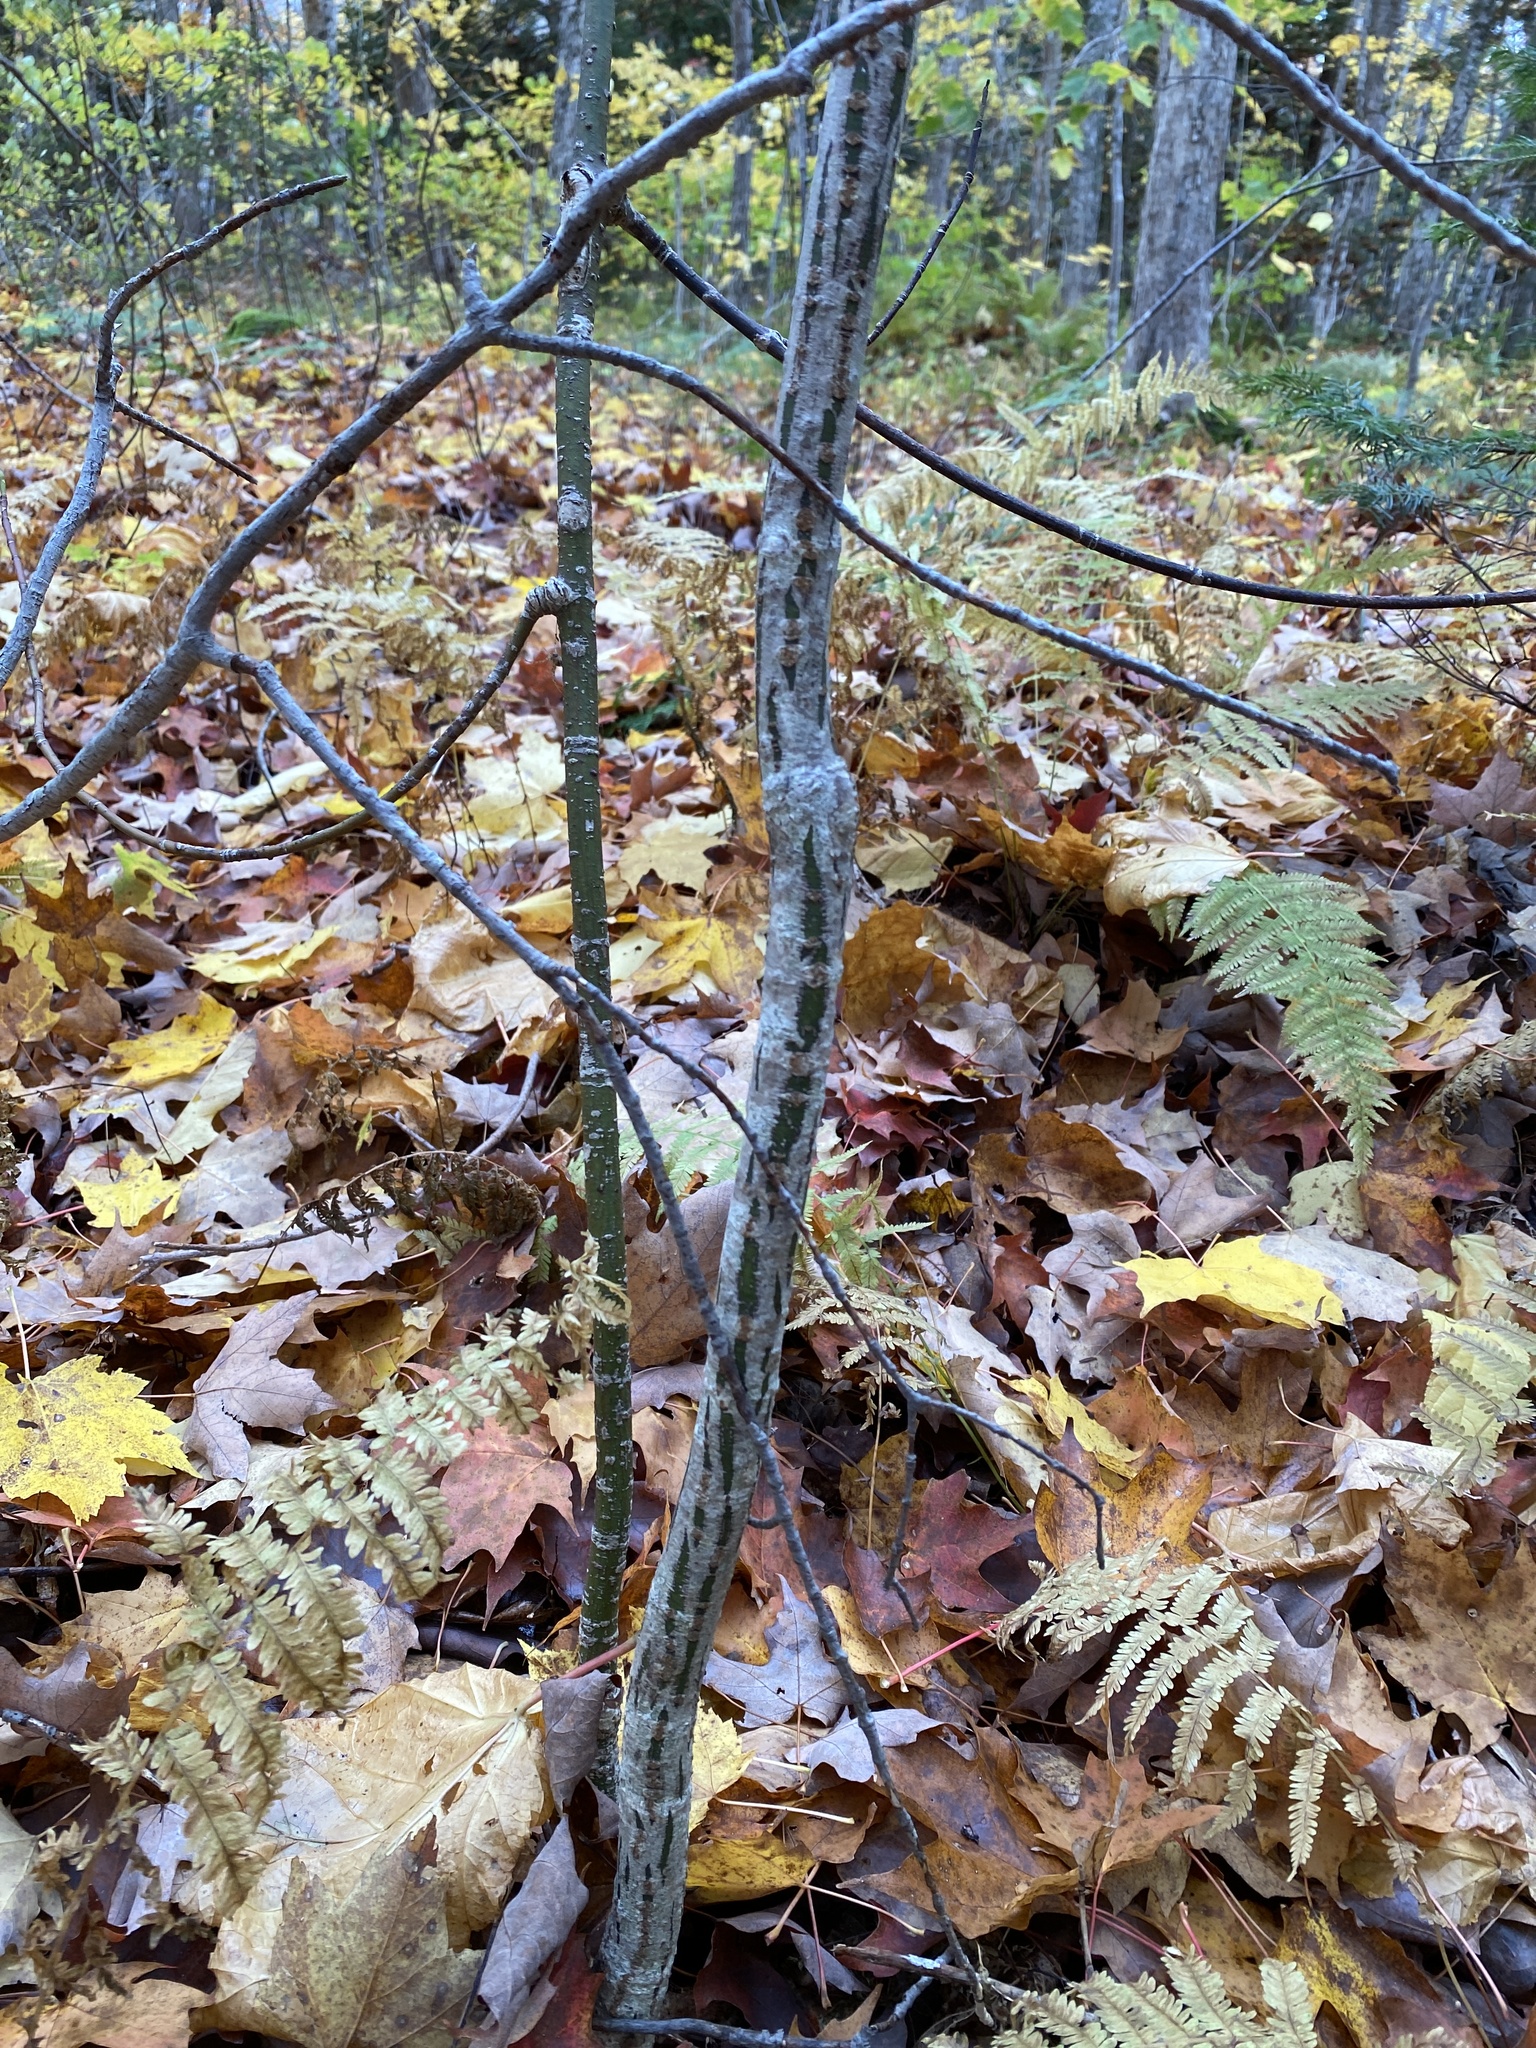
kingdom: Plantae
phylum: Tracheophyta
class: Magnoliopsida
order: Sapindales
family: Sapindaceae
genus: Acer
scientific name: Acer pensylvanicum
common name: Moosewood
